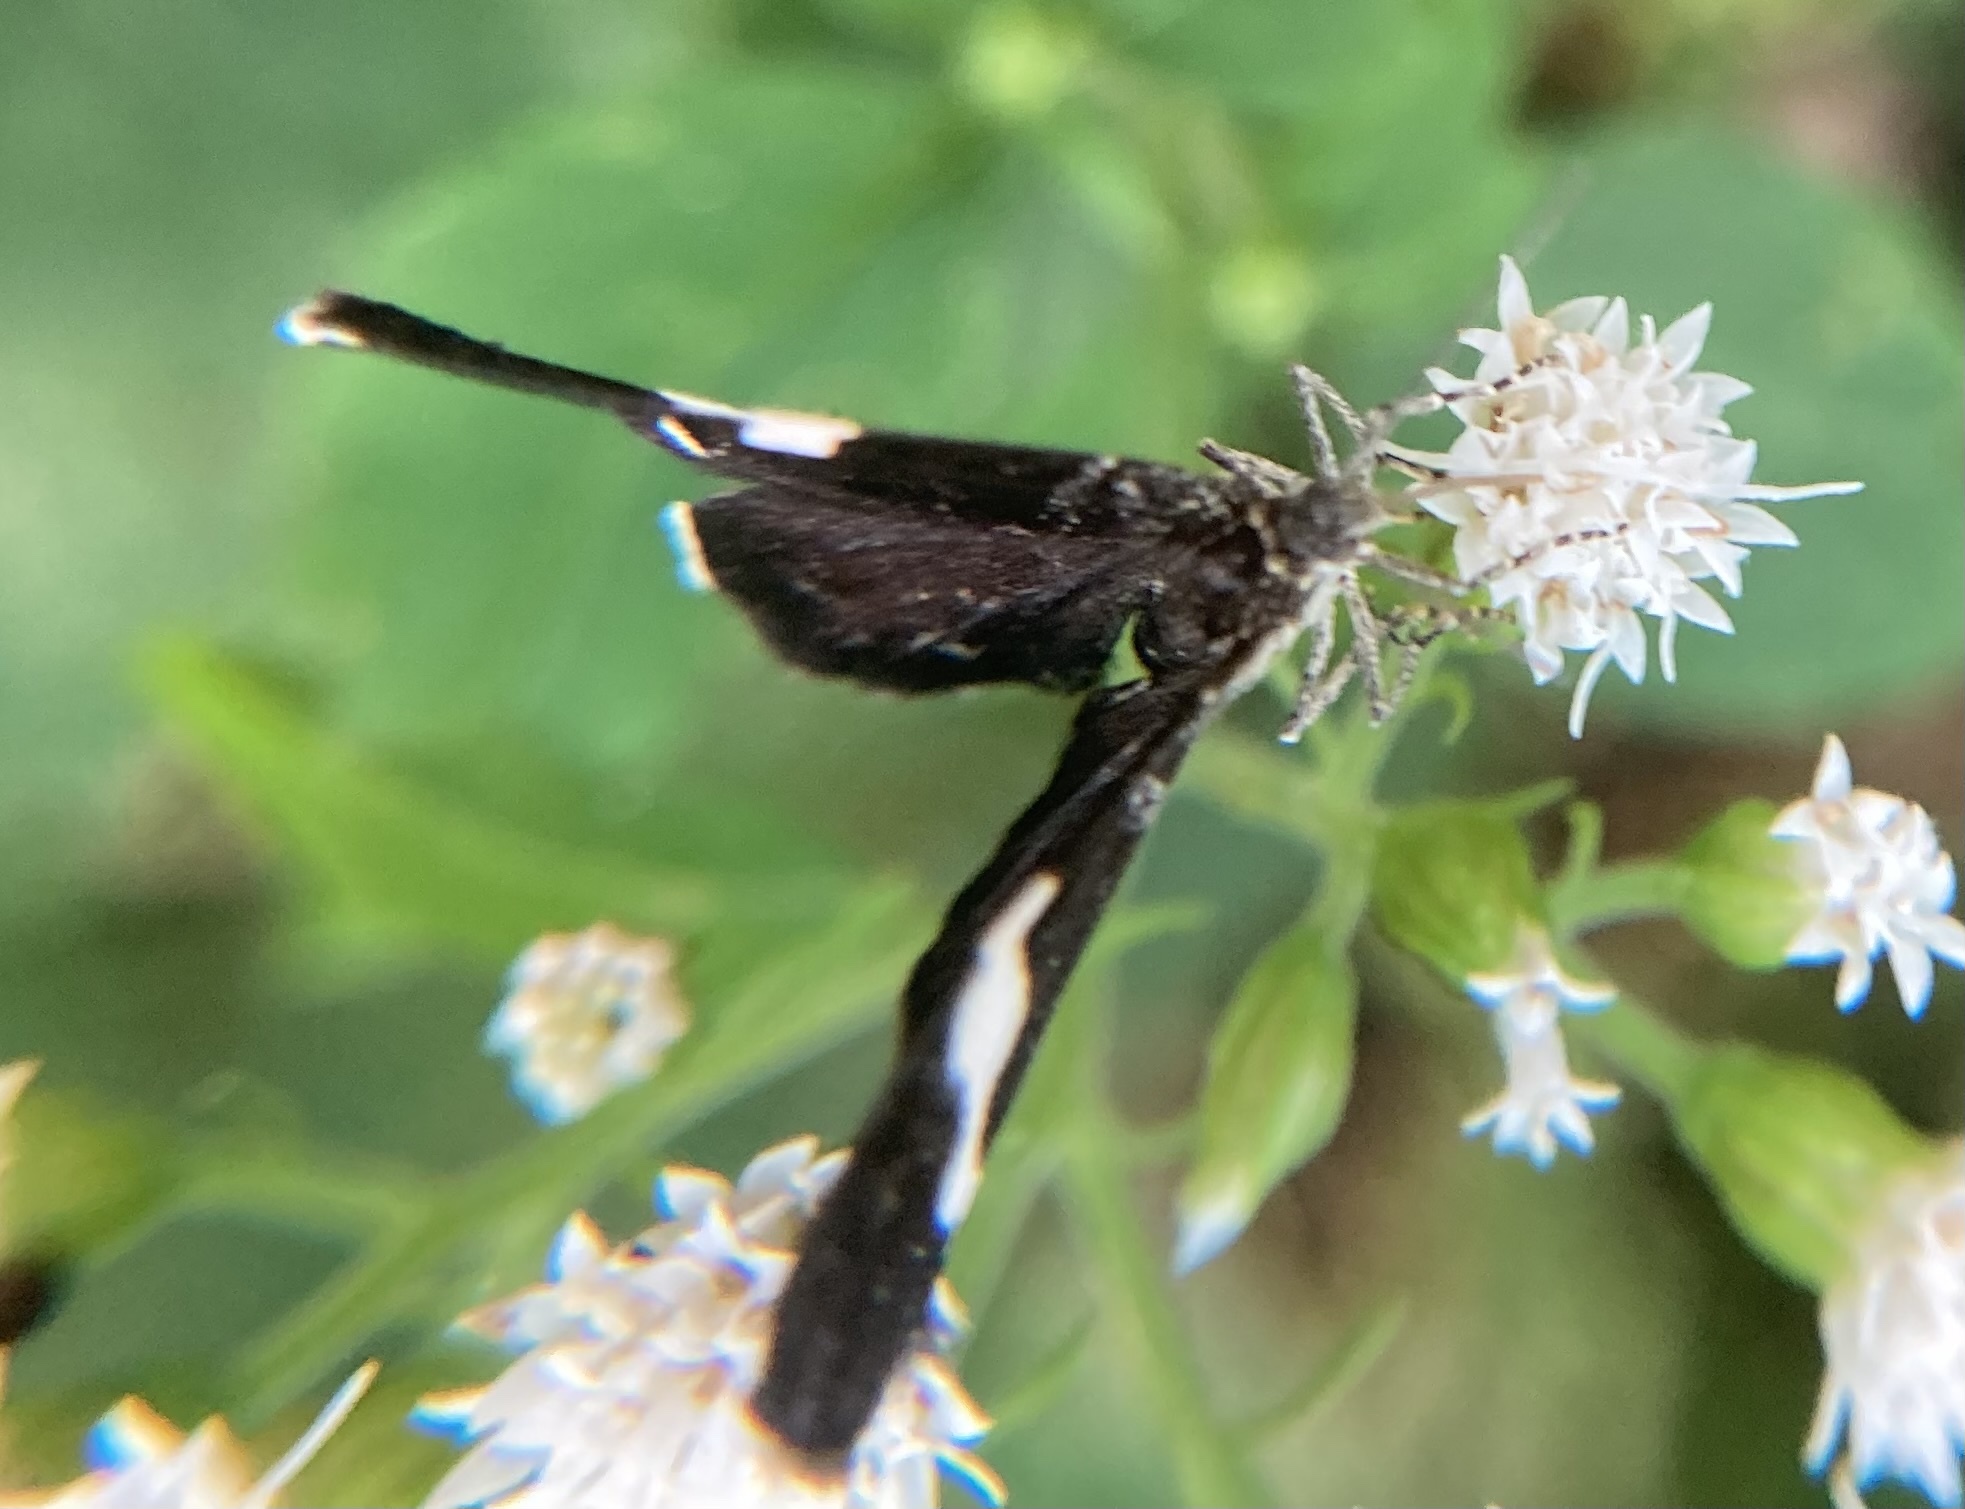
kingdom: Animalia
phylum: Arthropoda
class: Insecta
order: Lepidoptera
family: Geometridae
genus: Trichodezia
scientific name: Trichodezia albovittata
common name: White striped black
